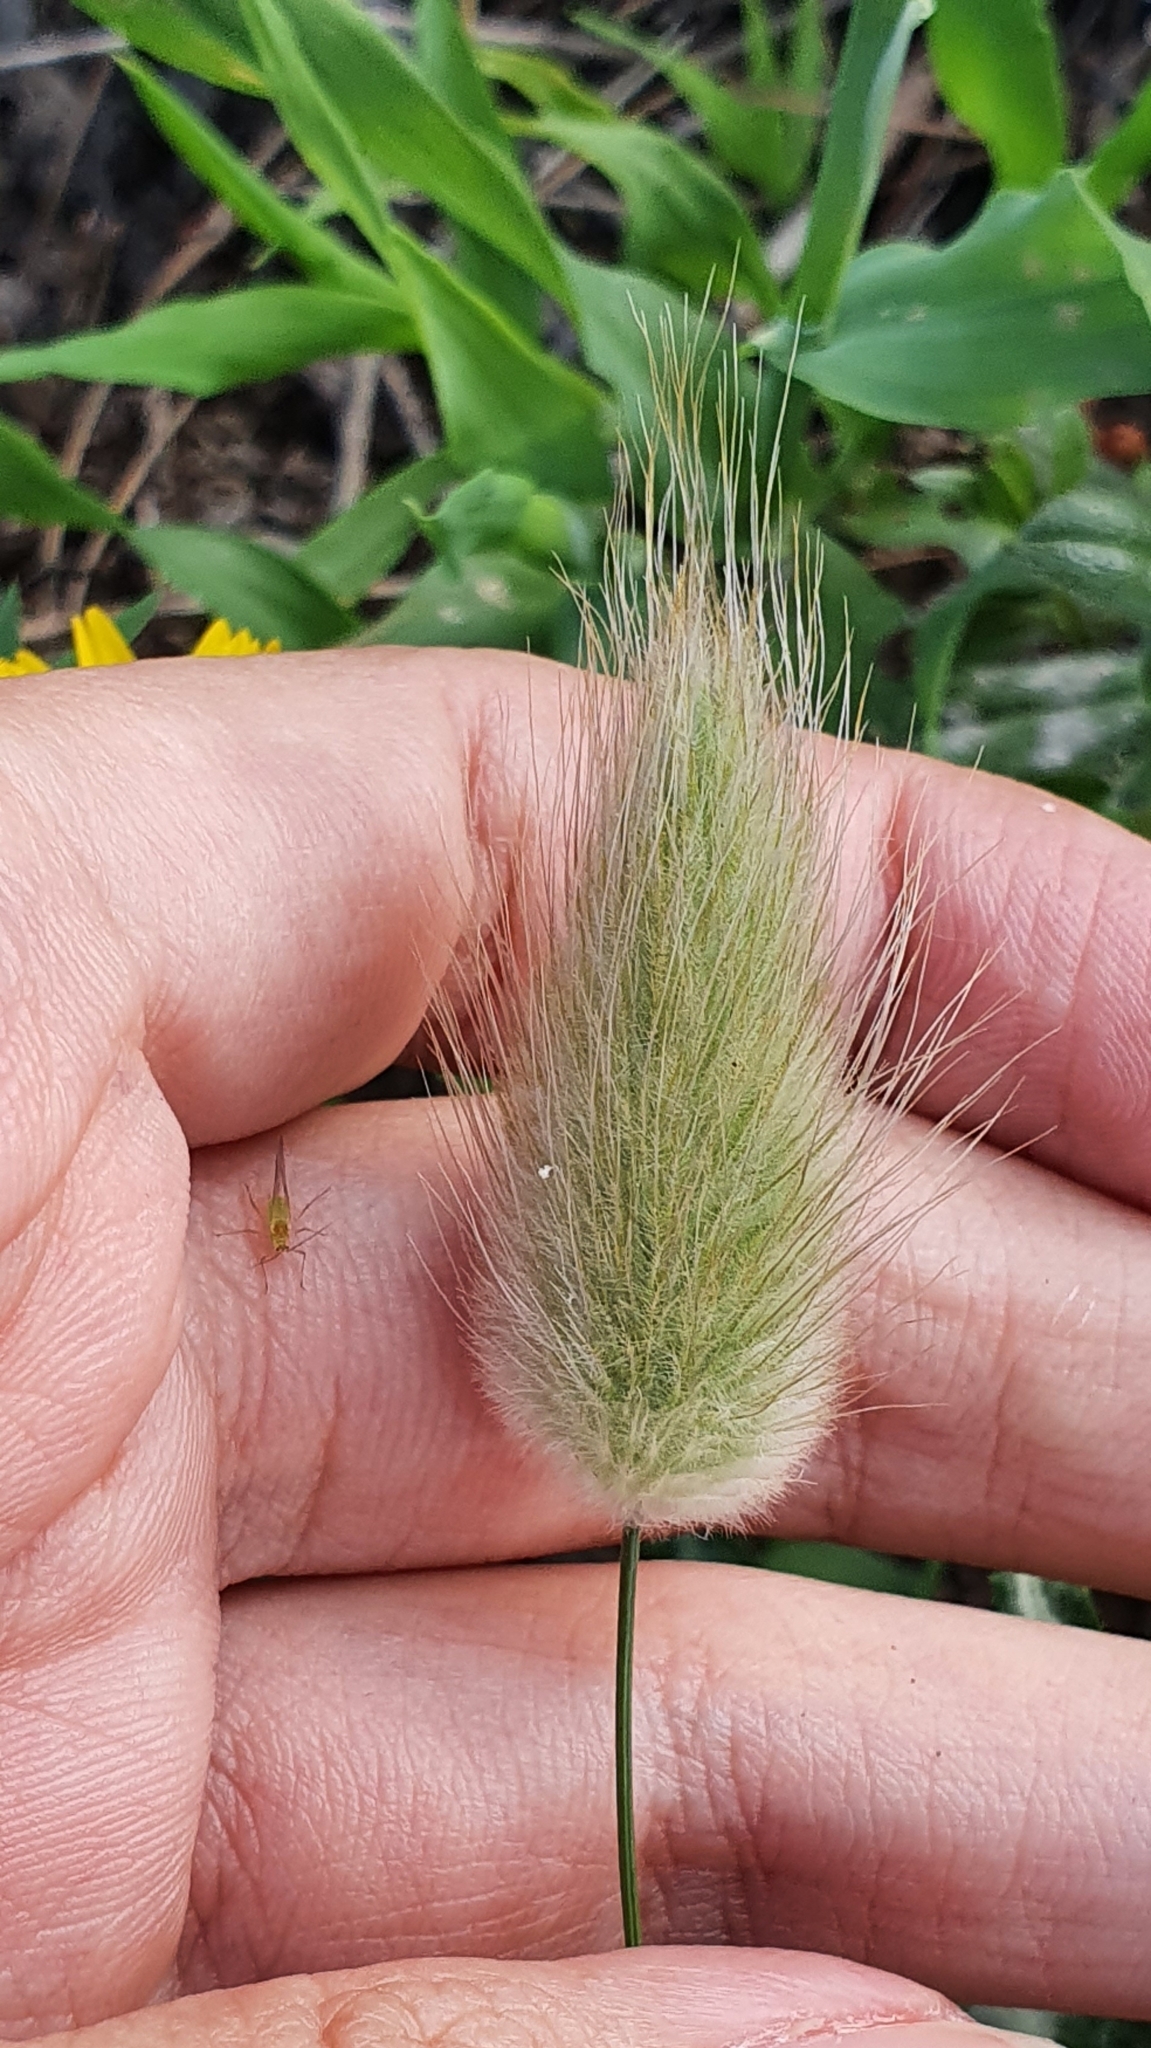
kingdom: Plantae
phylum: Tracheophyta
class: Liliopsida
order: Poales
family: Poaceae
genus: Lagurus
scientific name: Lagurus ovatus
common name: Hare's-tail
